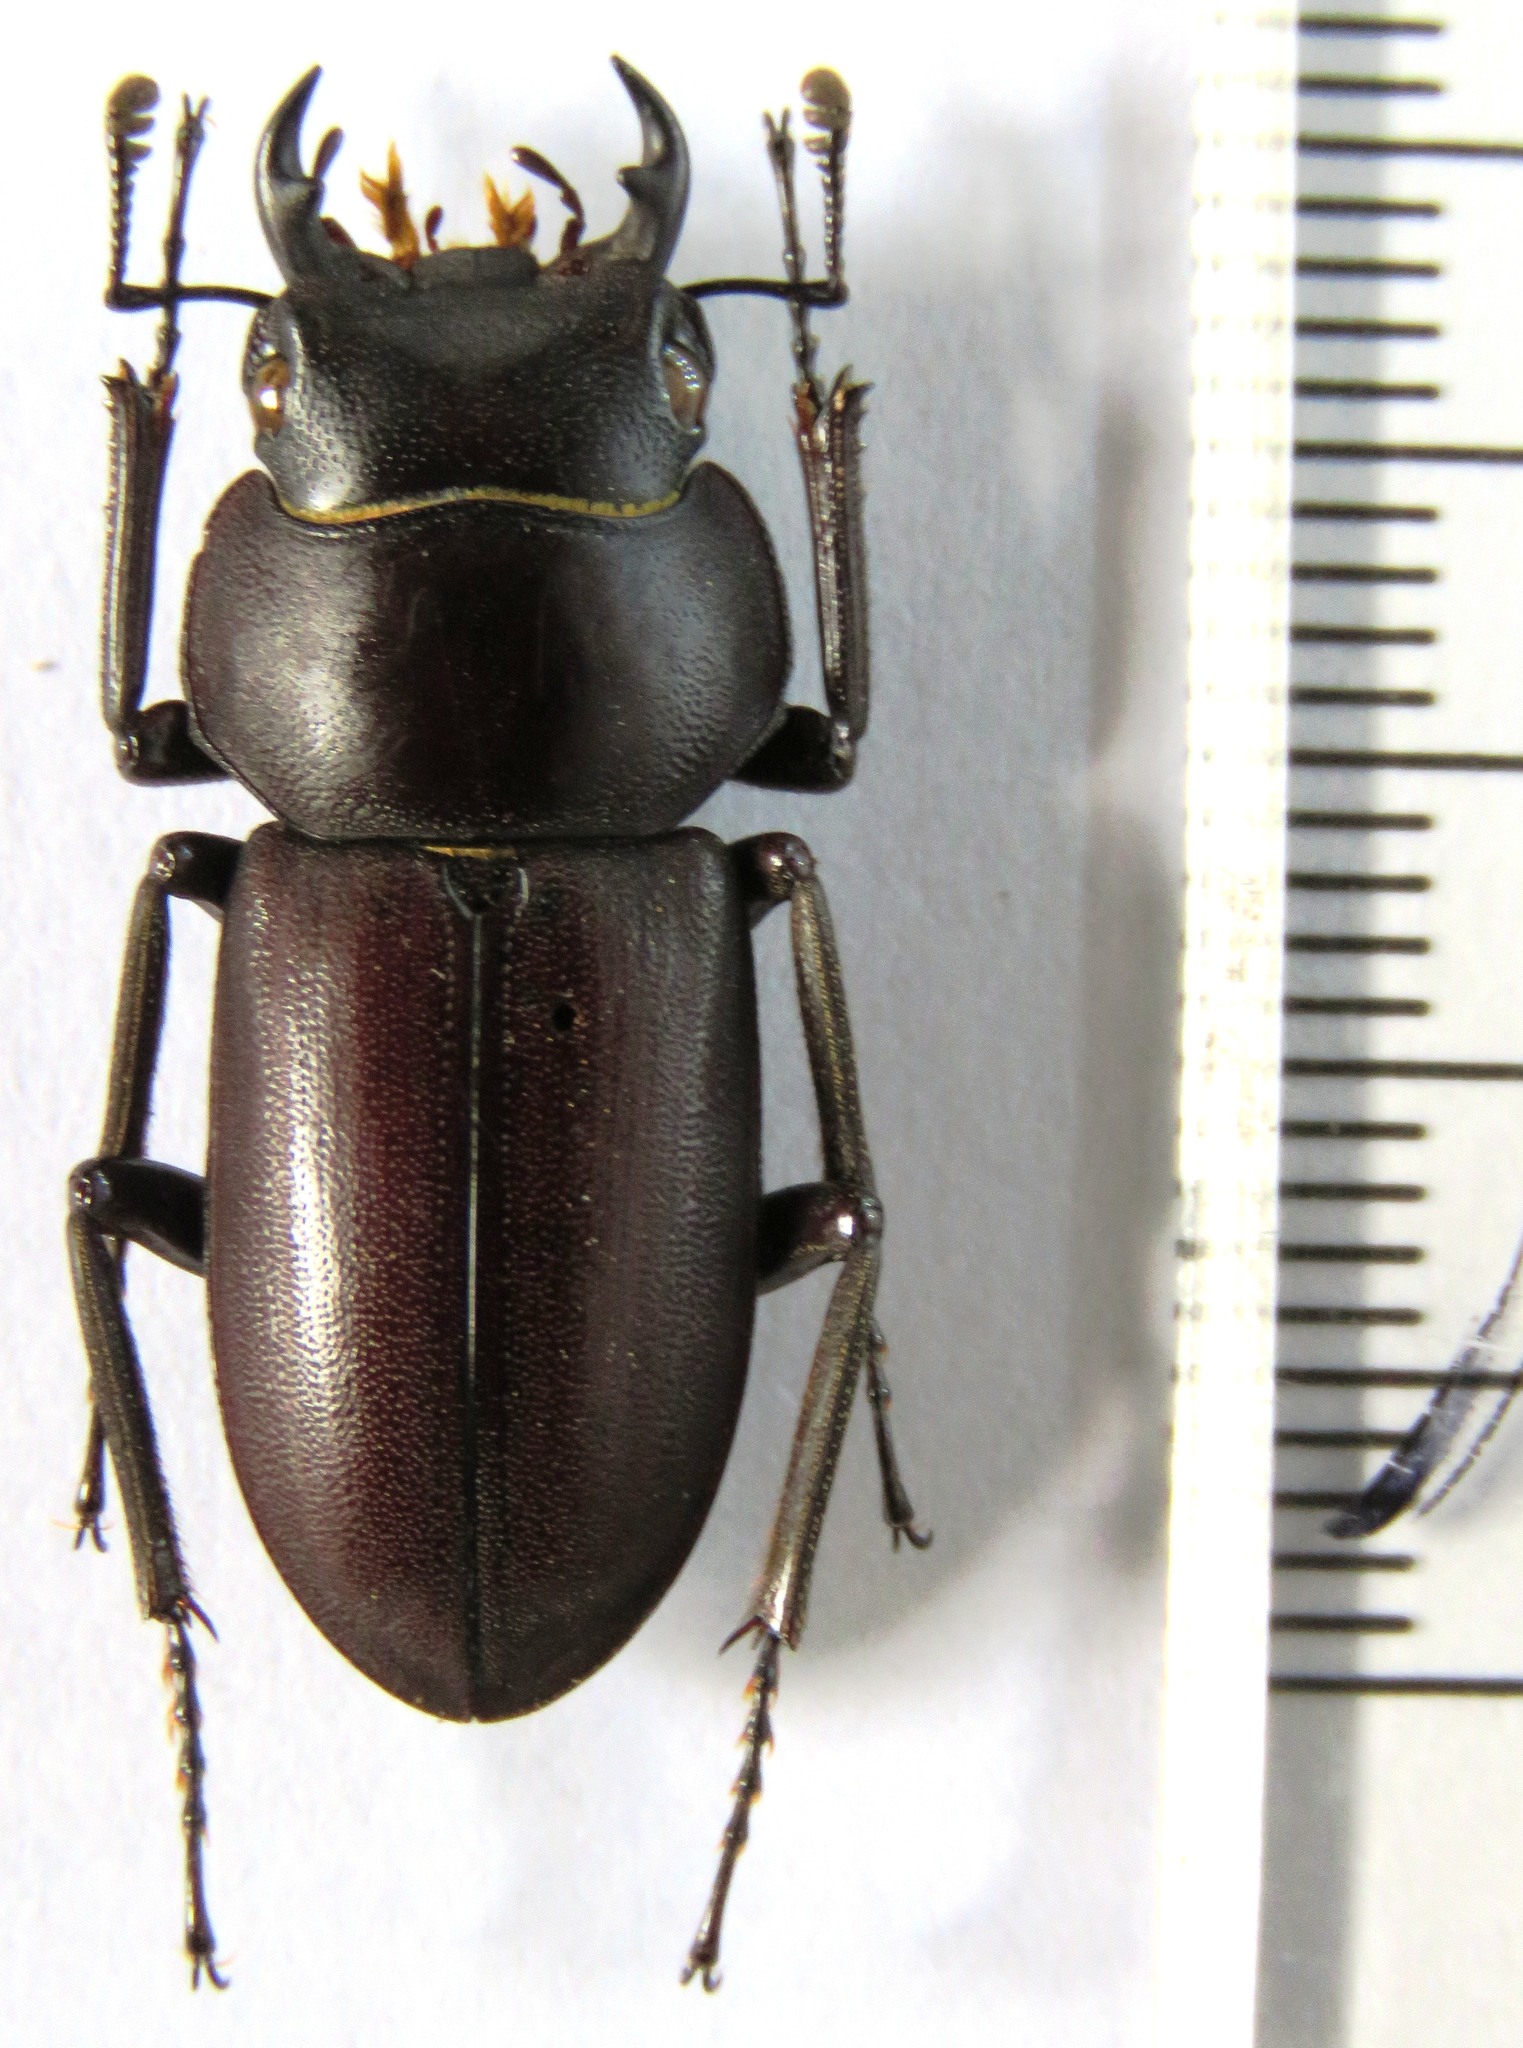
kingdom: Animalia
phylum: Arthropoda
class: Insecta
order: Coleoptera
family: Lucanidae
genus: Dorcus
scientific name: Dorcus amamianus
